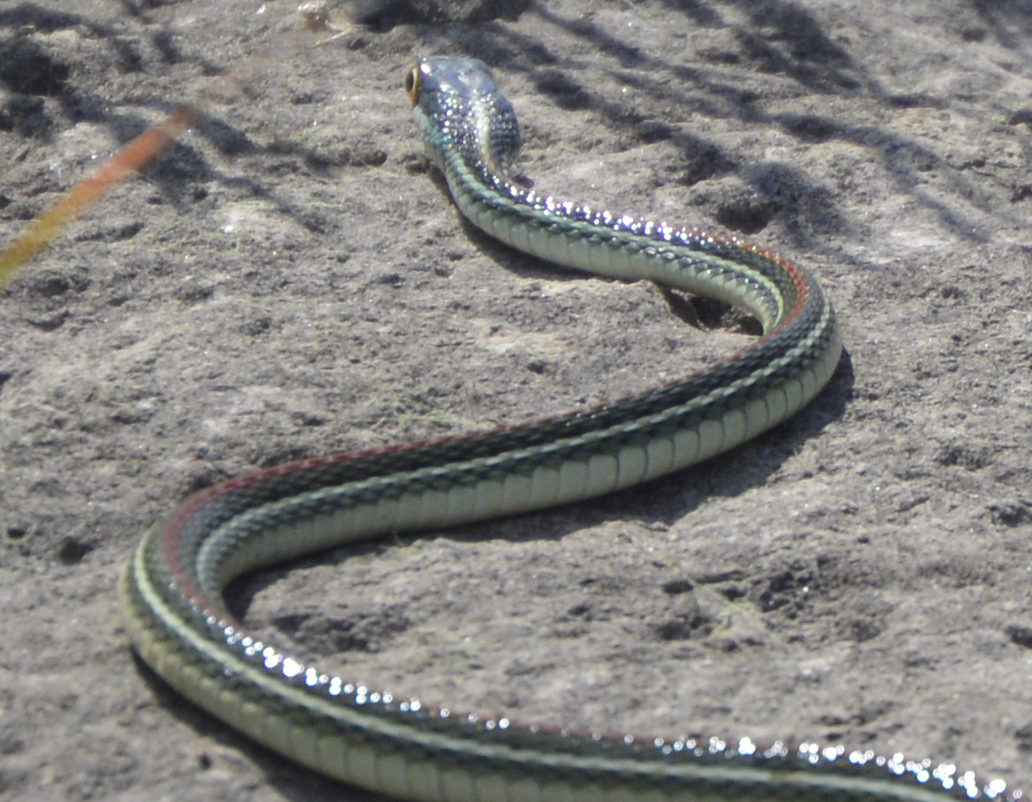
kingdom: Animalia
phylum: Chordata
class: Squamata
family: Colubridae
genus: Thamnophis
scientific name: Thamnophis proximus
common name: Western ribbon snake
